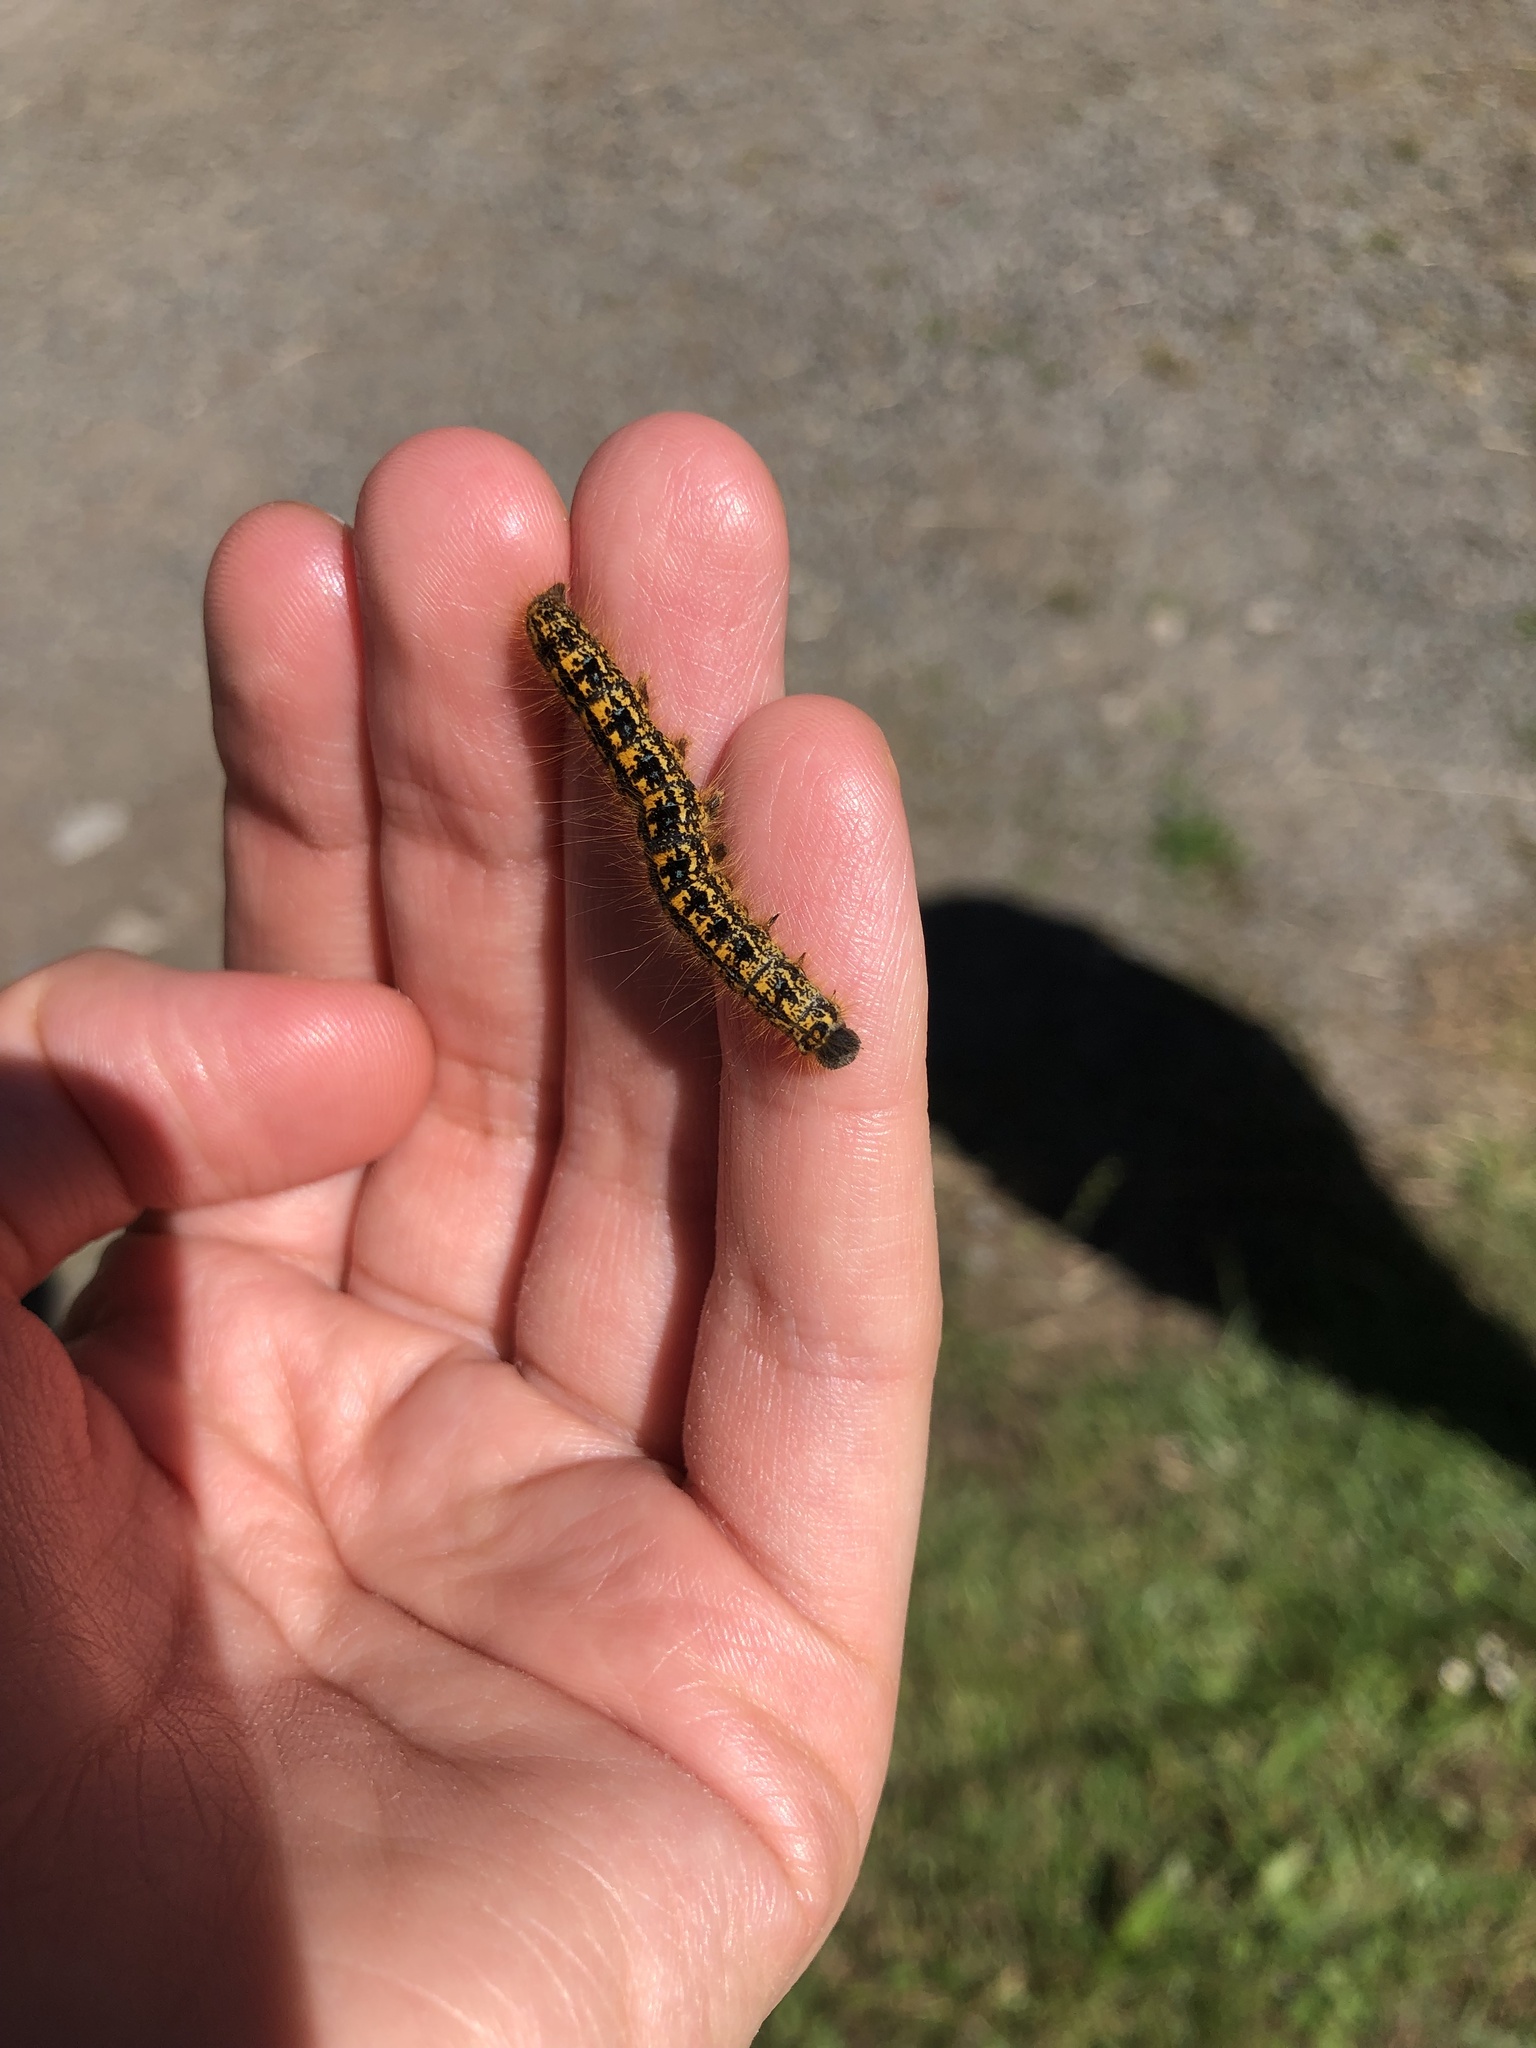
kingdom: Animalia
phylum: Arthropoda
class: Insecta
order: Lepidoptera
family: Lasiocampidae
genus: Malacosoma
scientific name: Malacosoma californica
